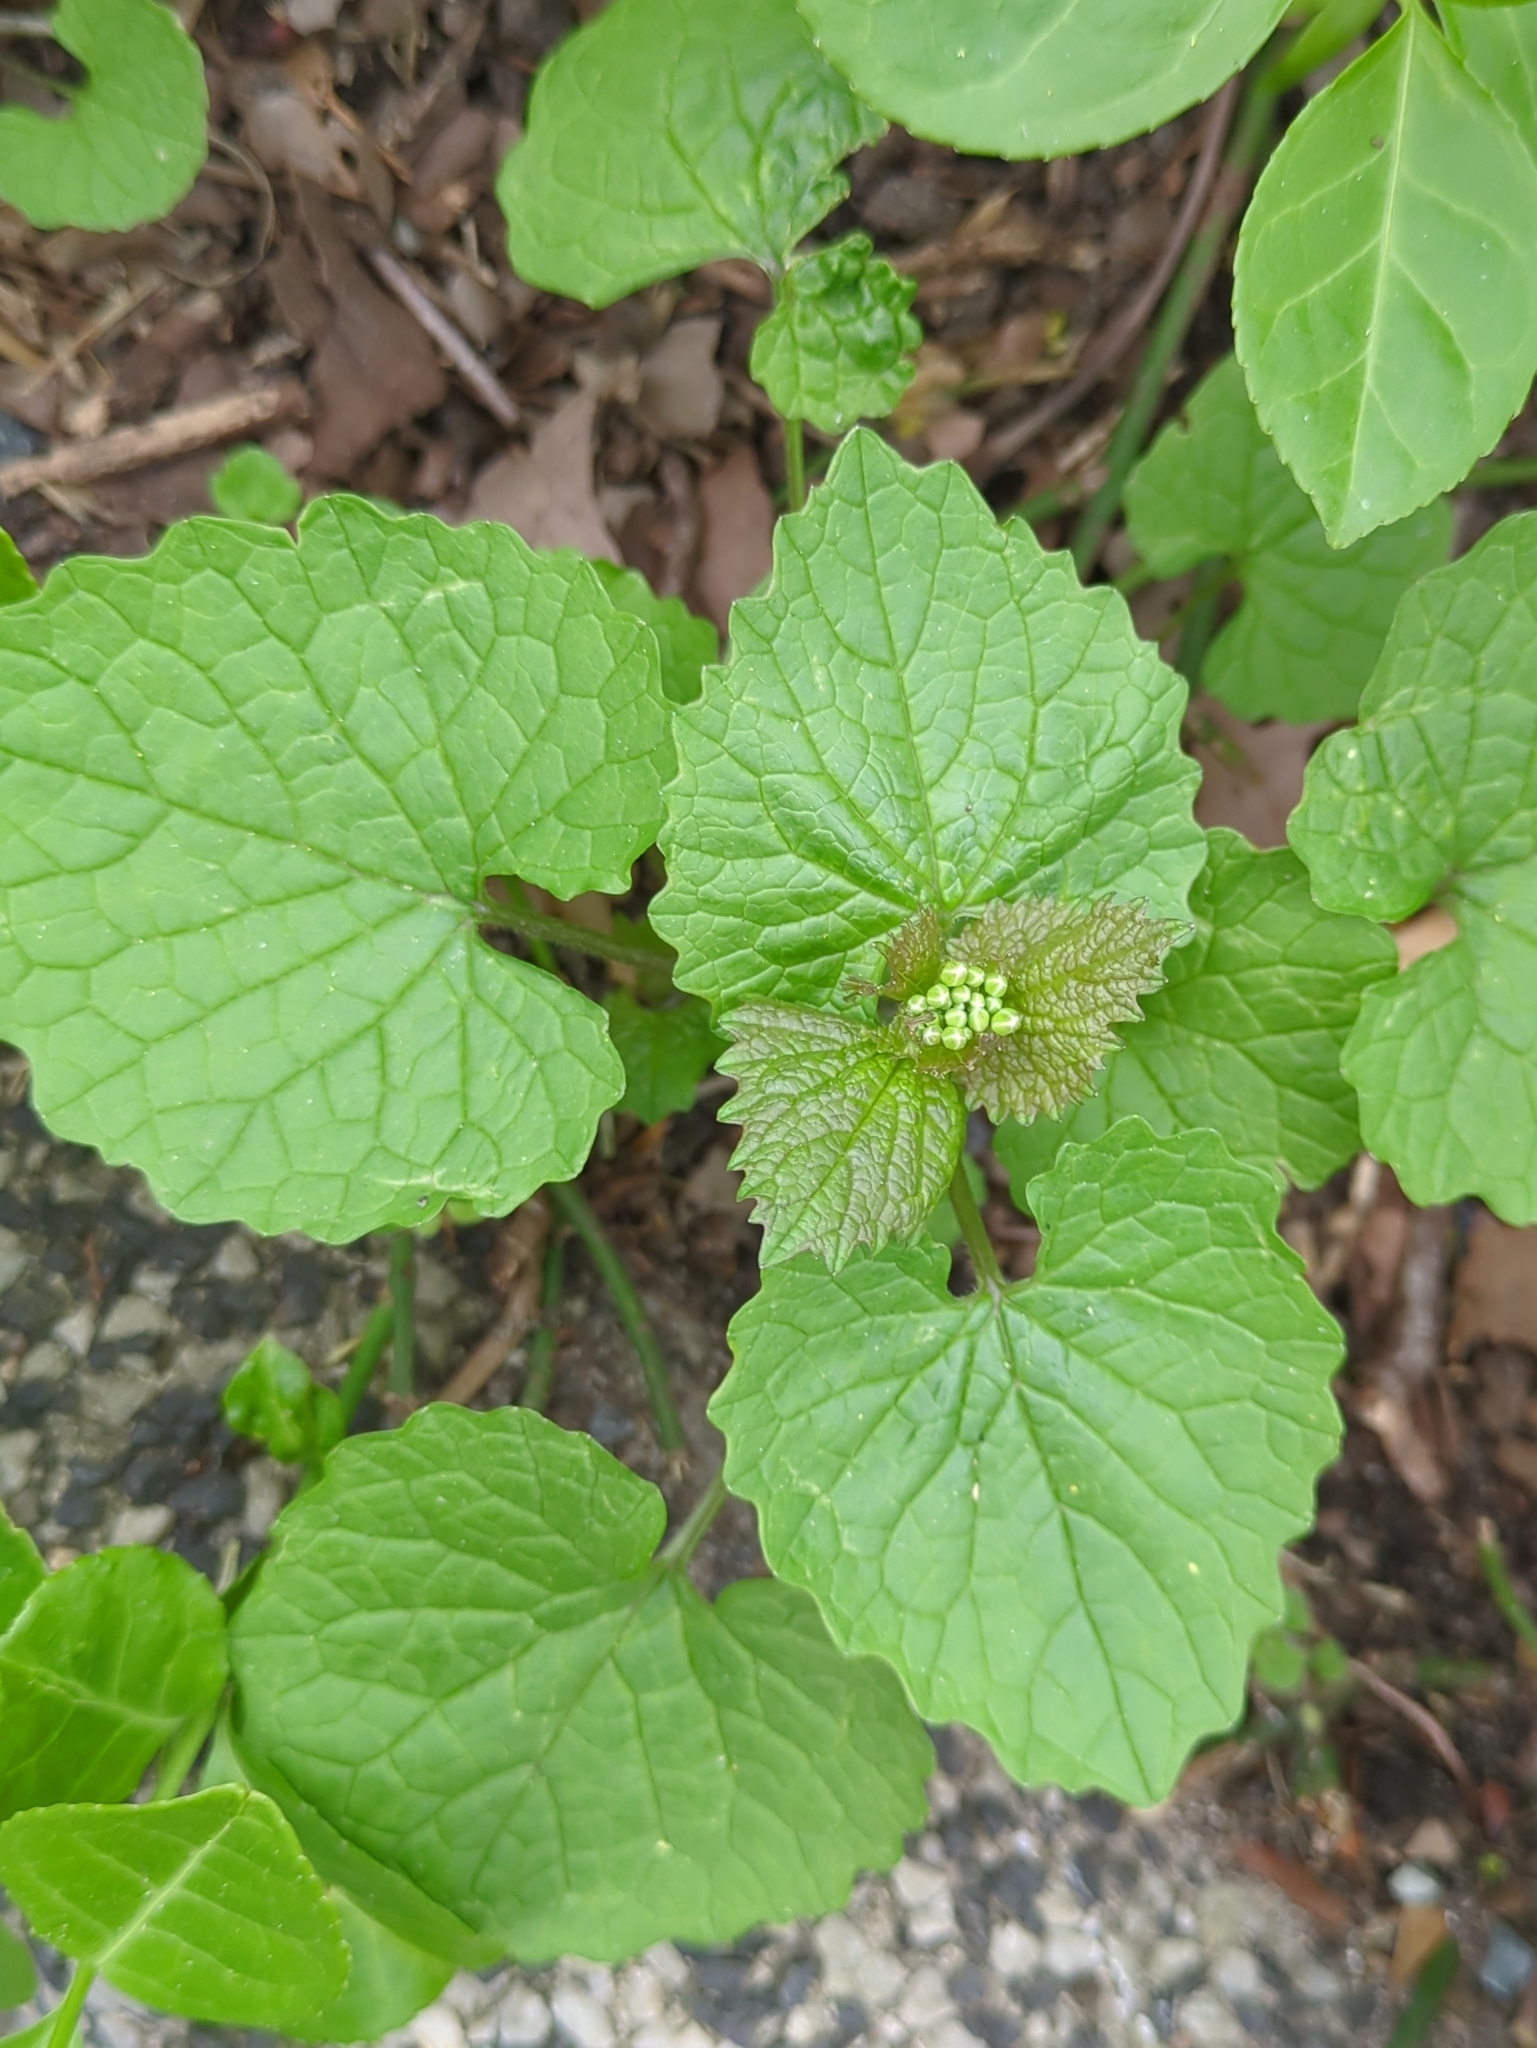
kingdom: Plantae
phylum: Tracheophyta
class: Magnoliopsida
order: Brassicales
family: Brassicaceae
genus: Alliaria
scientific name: Alliaria petiolata
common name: Garlic mustard
